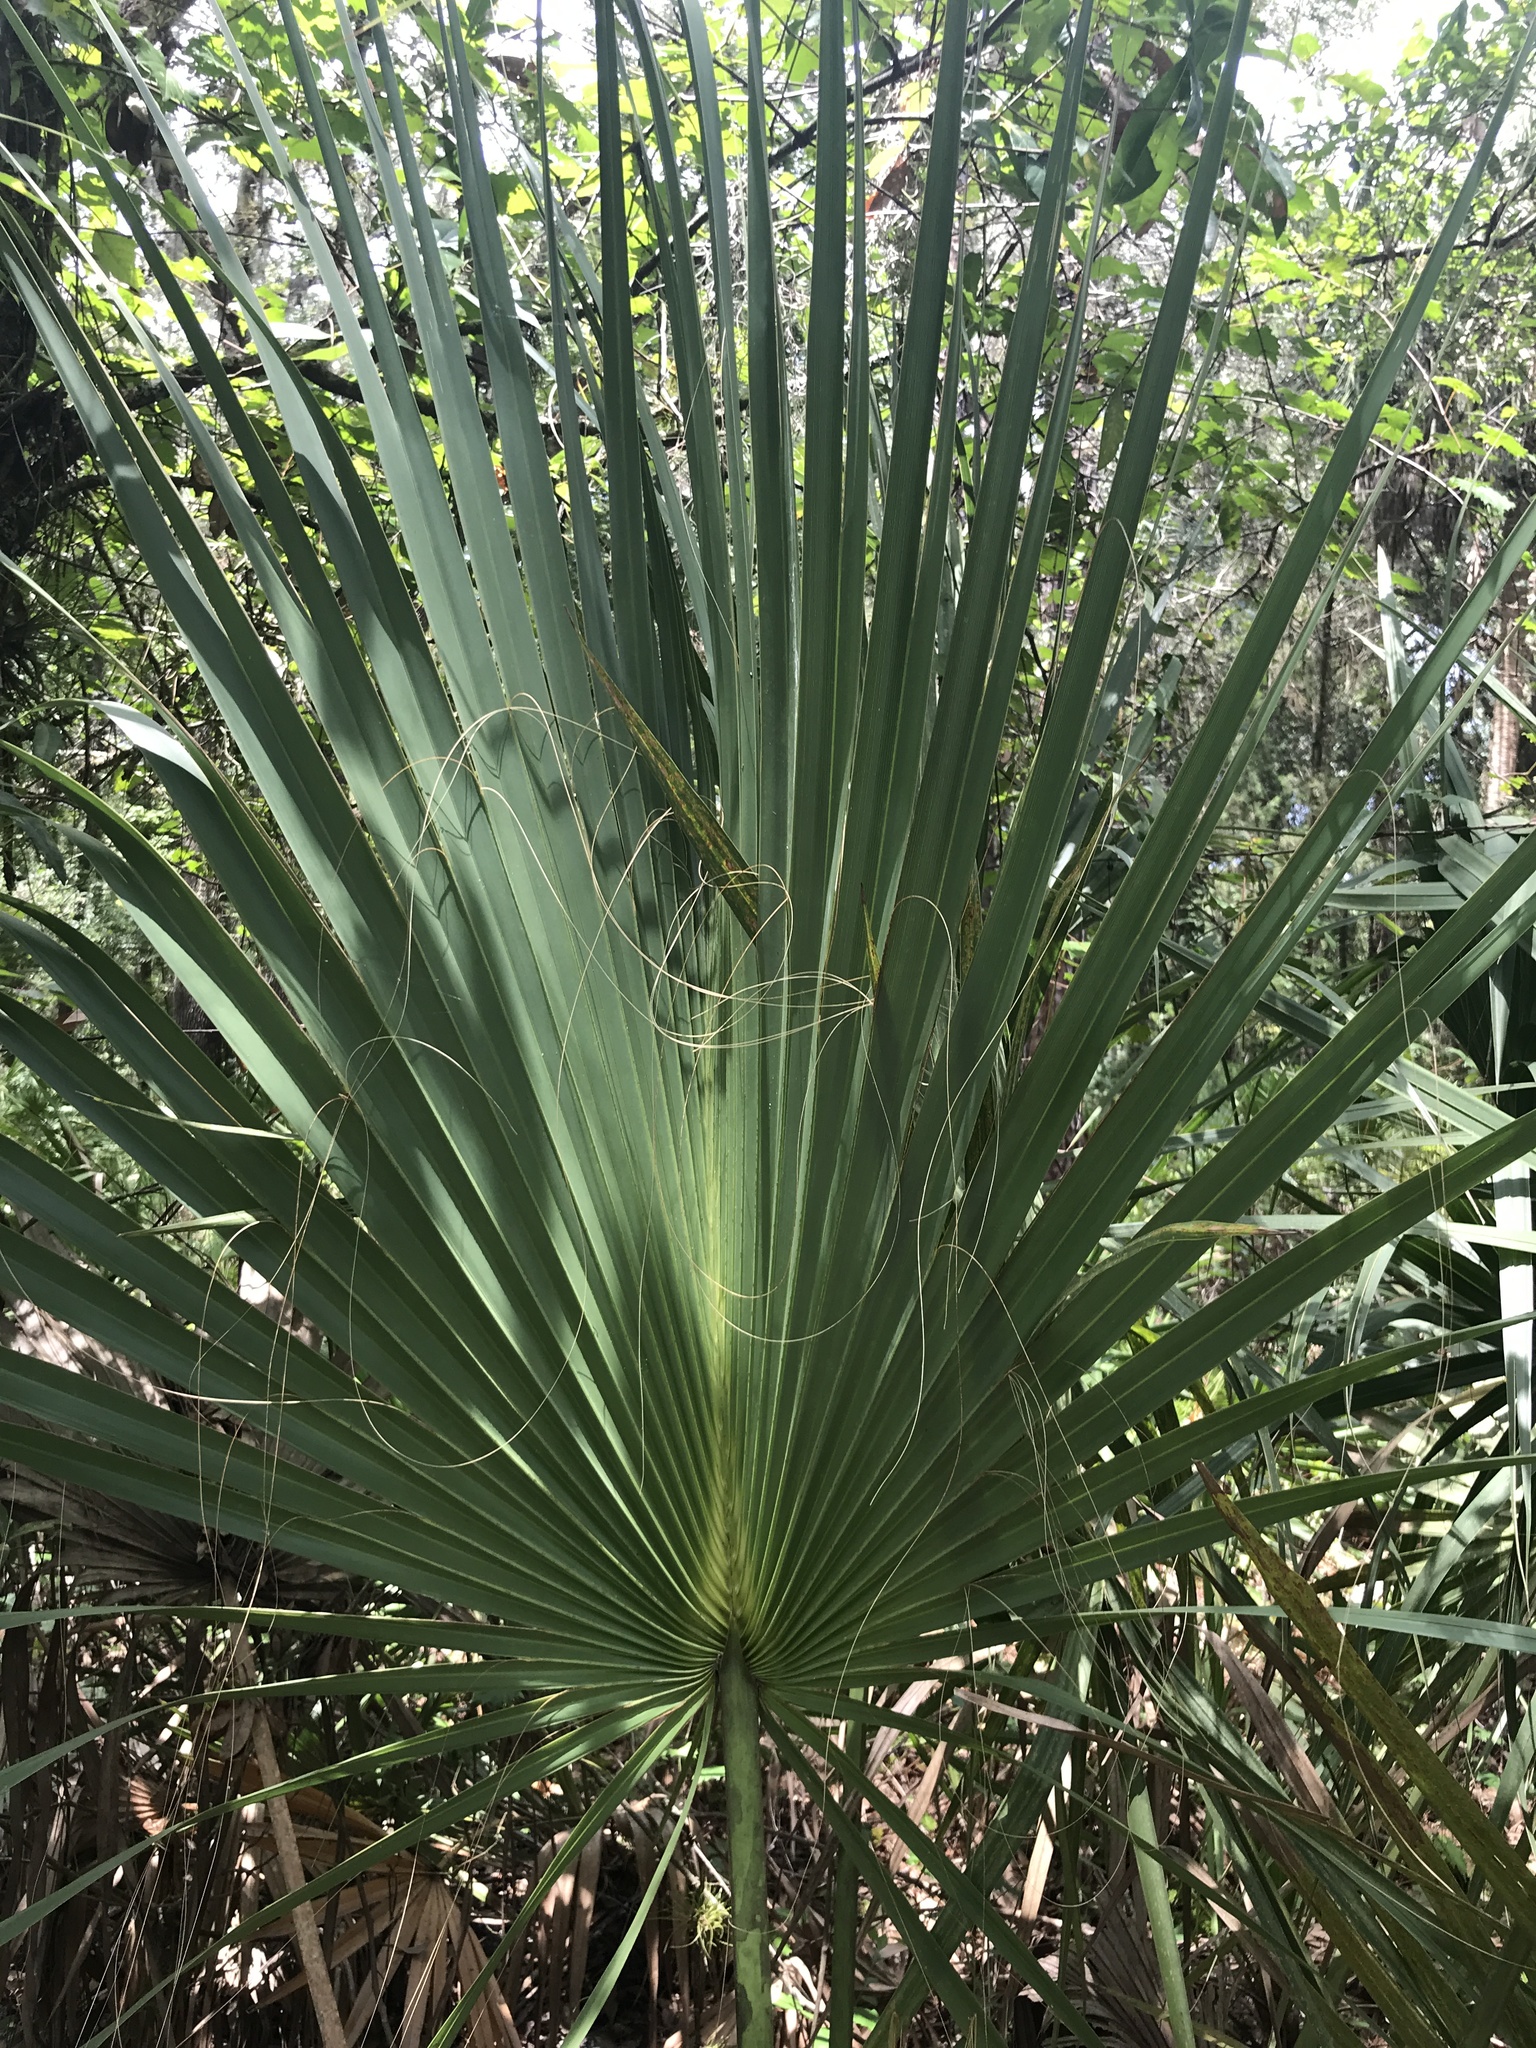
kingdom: Plantae
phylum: Tracheophyta
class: Liliopsida
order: Arecales
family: Arecaceae
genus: Sabal
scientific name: Sabal palmetto
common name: Blue palmetto
